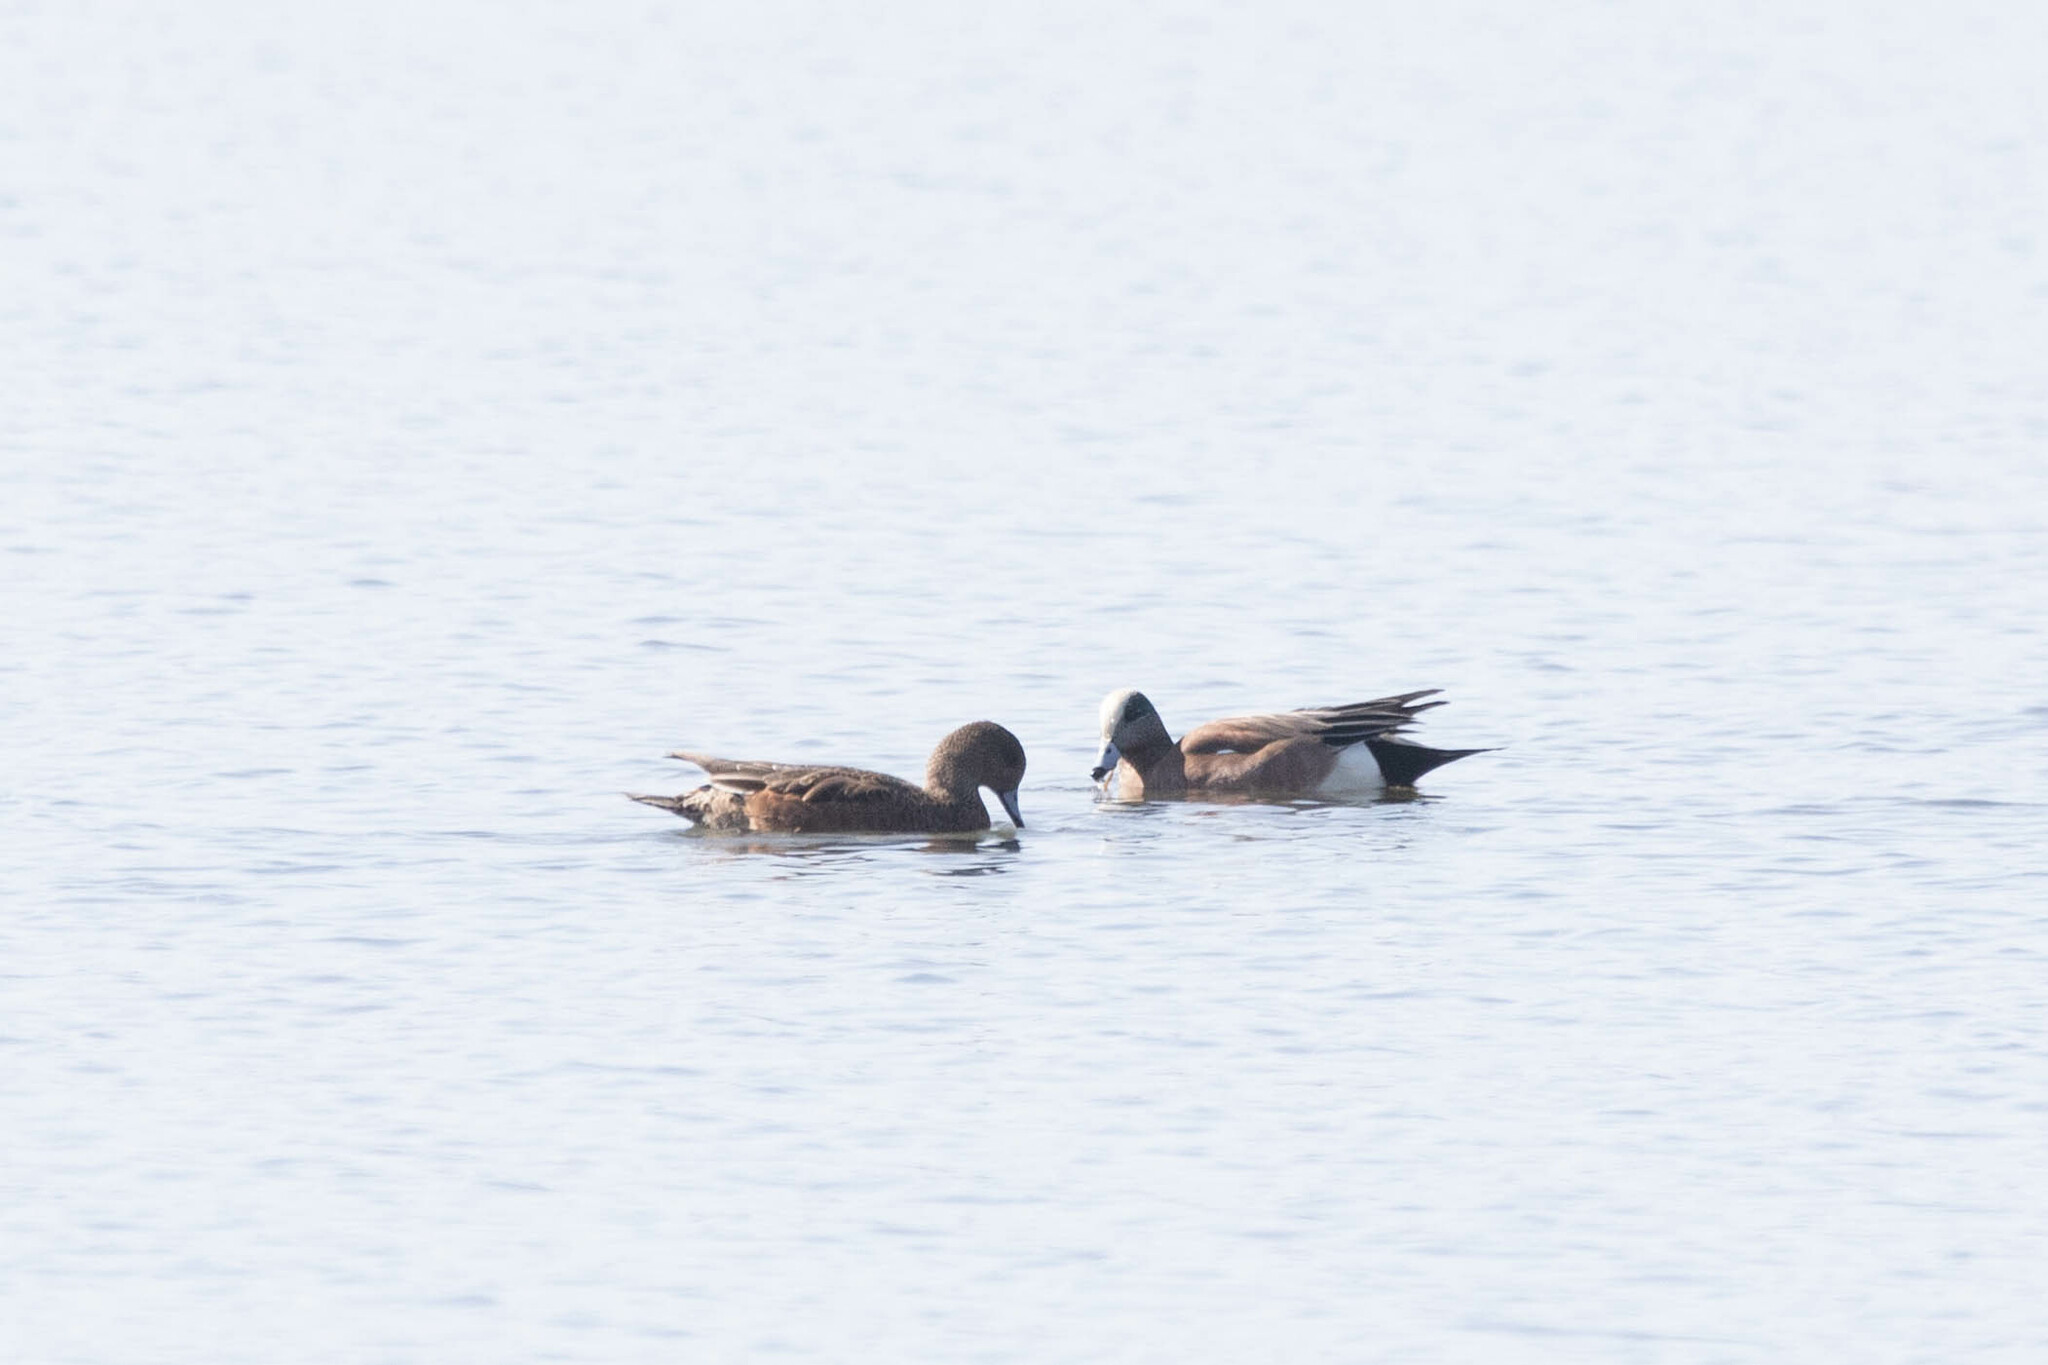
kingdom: Animalia
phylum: Chordata
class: Aves
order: Anseriformes
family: Anatidae
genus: Mareca
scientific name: Mareca americana
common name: American wigeon
